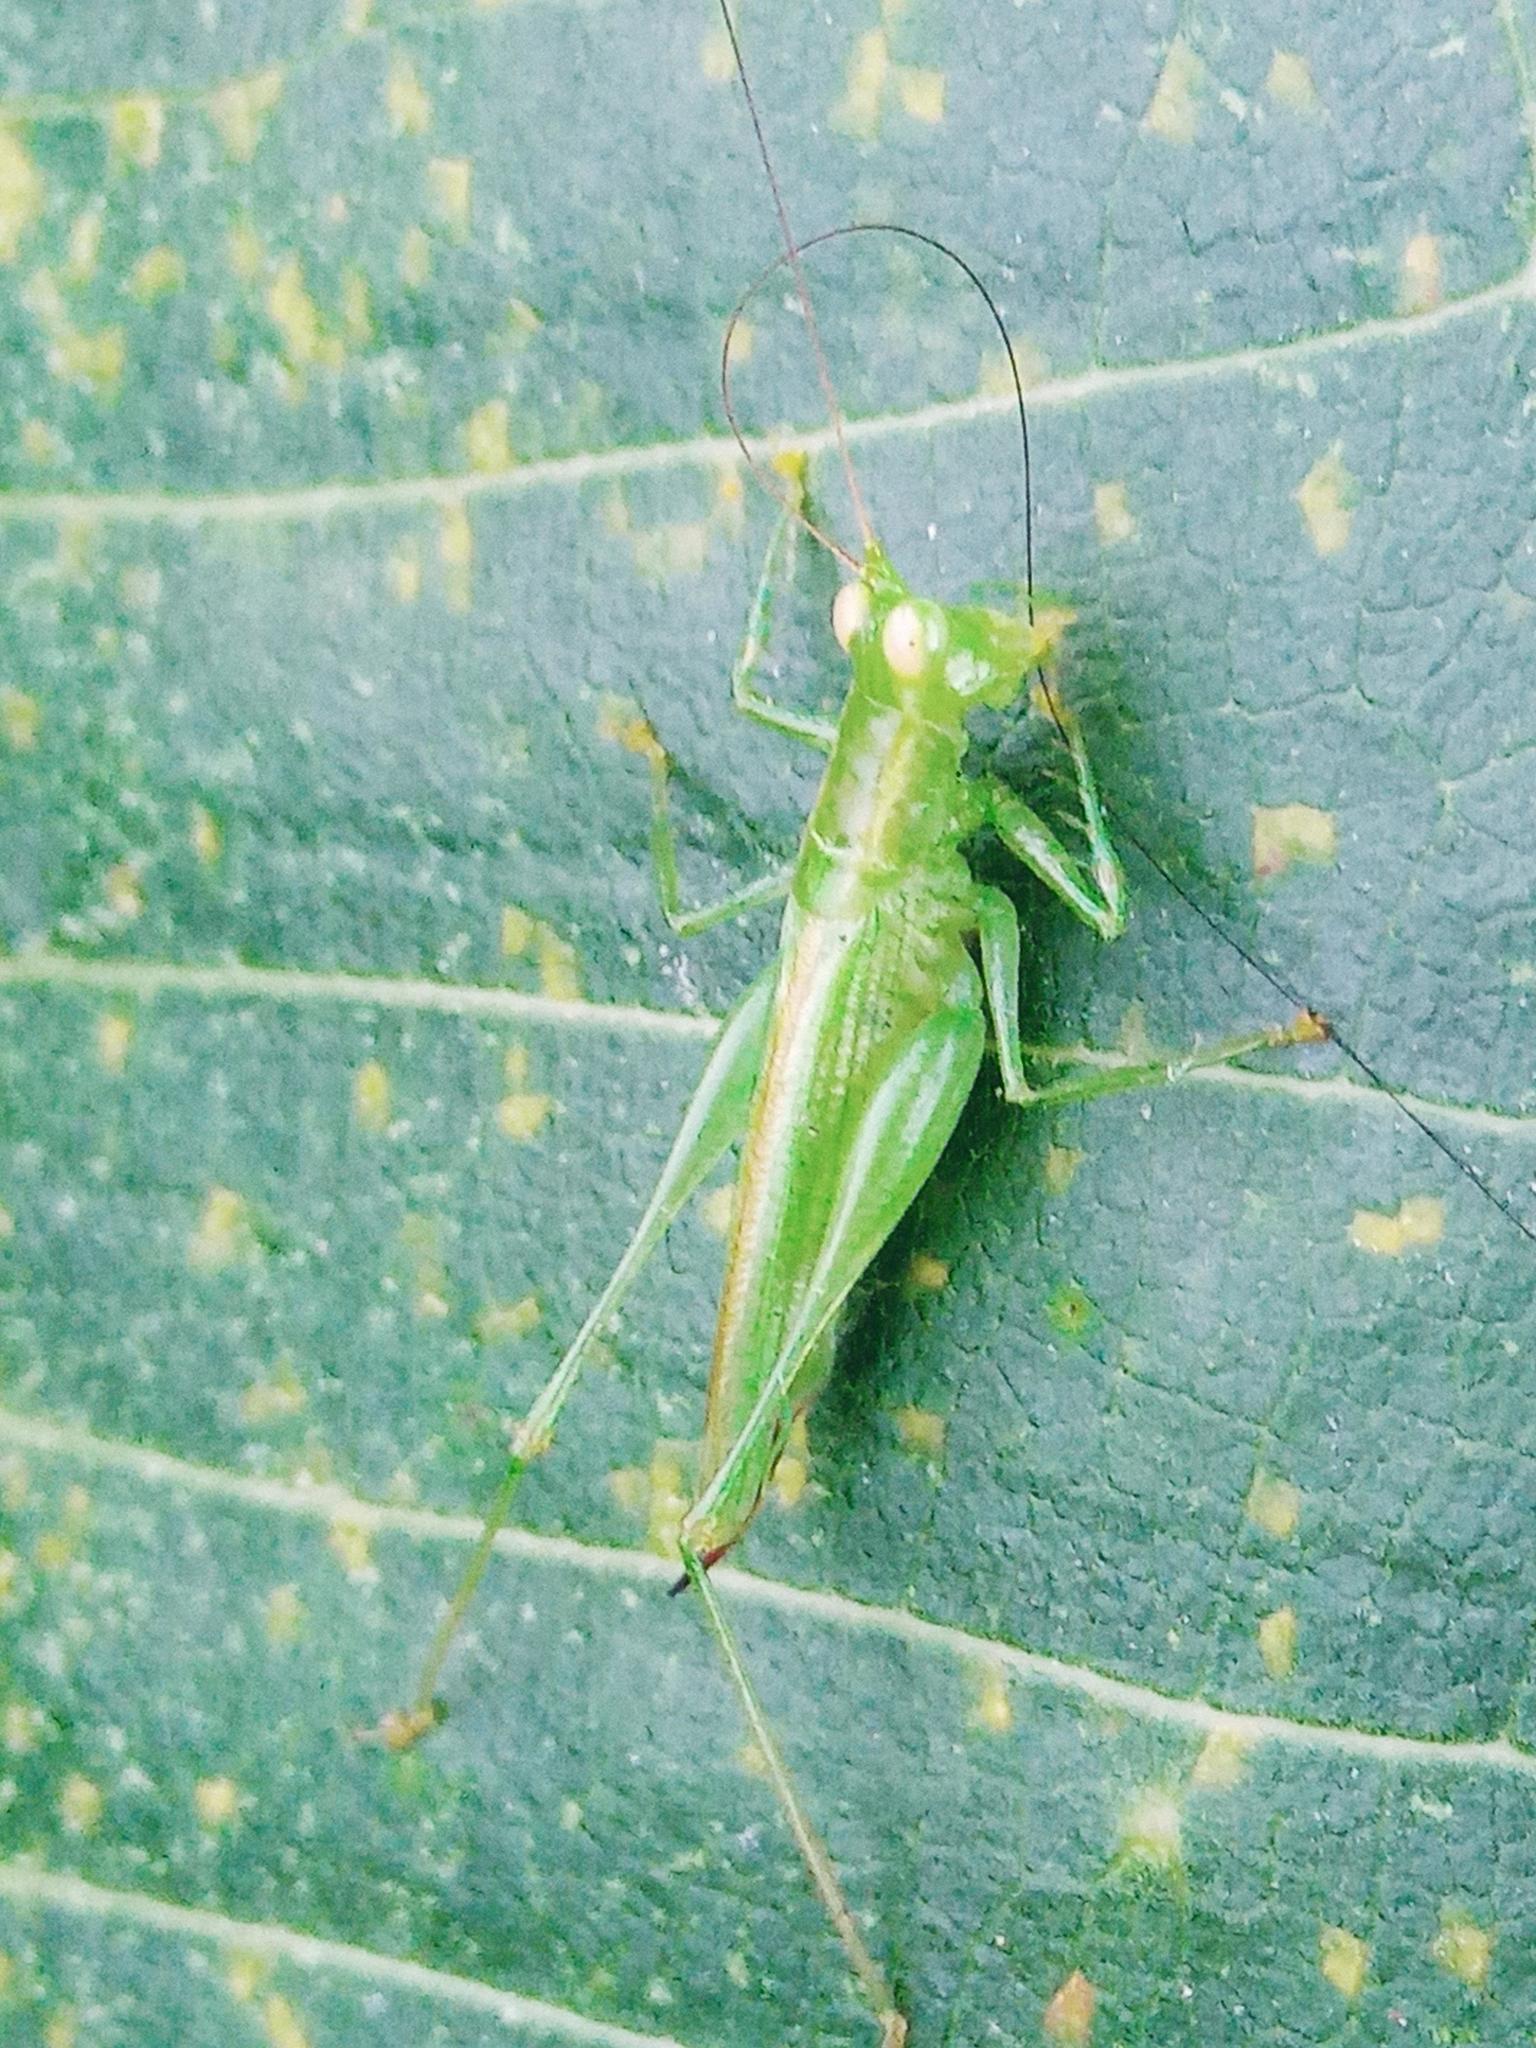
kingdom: Animalia
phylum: Arthropoda
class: Insecta
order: Orthoptera
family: Tettigoniidae
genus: Austrophlugis
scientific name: Austrophlugis debaari
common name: Debaar's swayer
